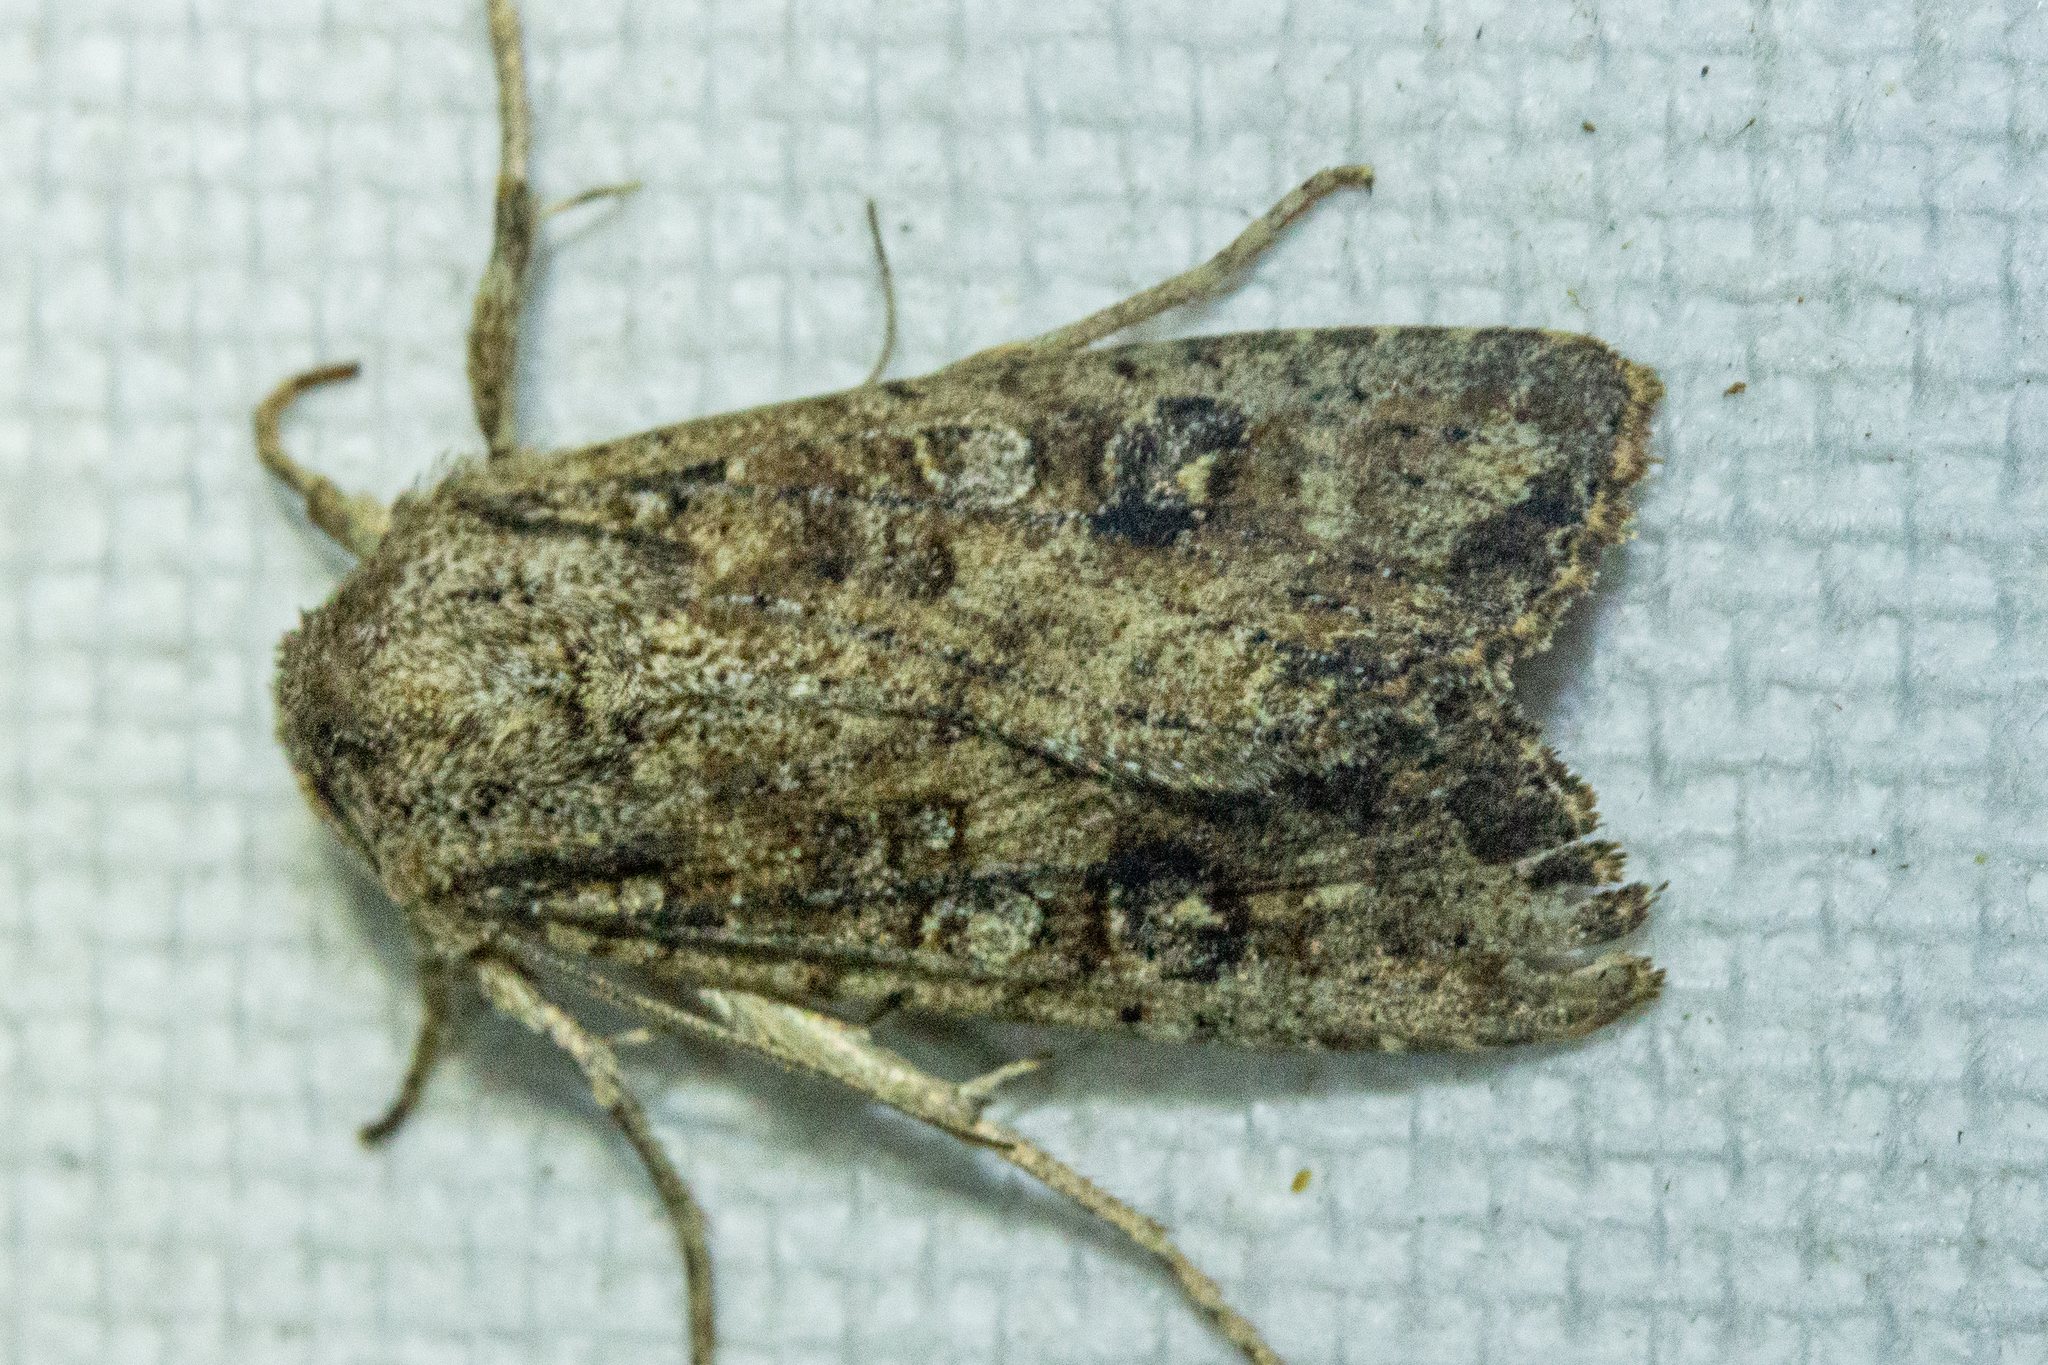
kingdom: Animalia
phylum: Arthropoda
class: Insecta
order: Lepidoptera
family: Noctuidae
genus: Ichneutica
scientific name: Ichneutica morosa
